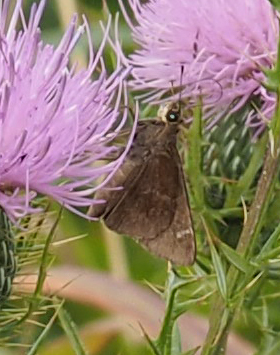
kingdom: Animalia
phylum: Arthropoda
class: Insecta
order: Lepidoptera
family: Hesperiidae
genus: Lerema
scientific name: Lerema accius
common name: Clouded skipper
